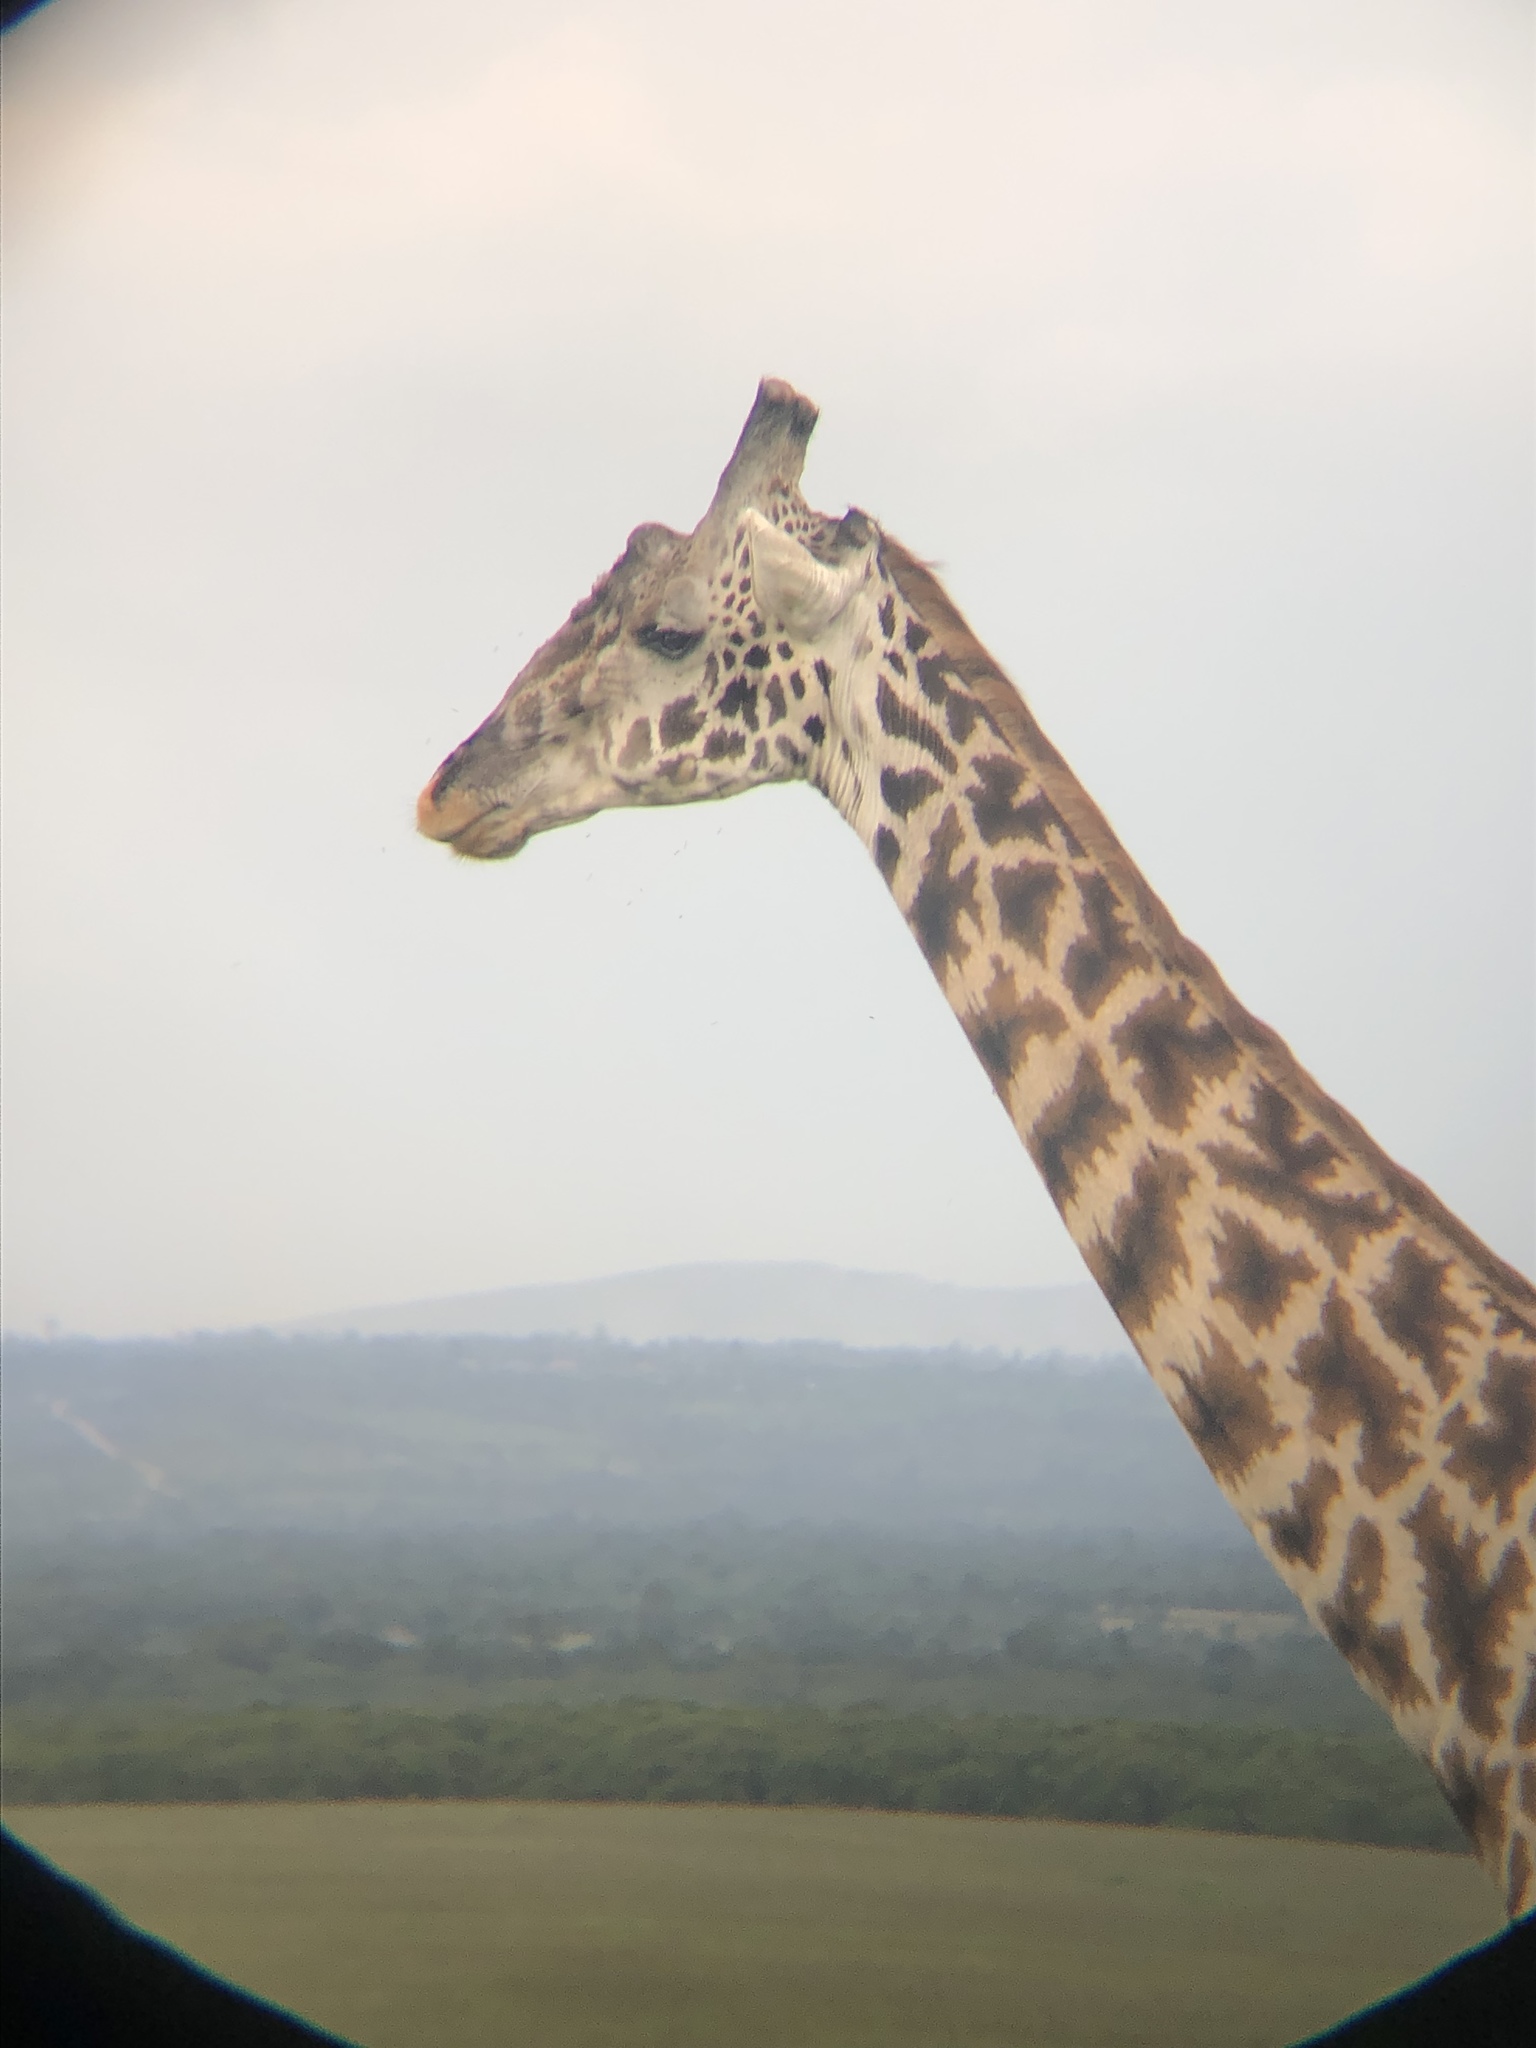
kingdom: Animalia
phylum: Chordata
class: Mammalia
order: Artiodactyla
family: Giraffidae
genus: Giraffa
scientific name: Giraffa tippelskirchi
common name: Masai giraffe
